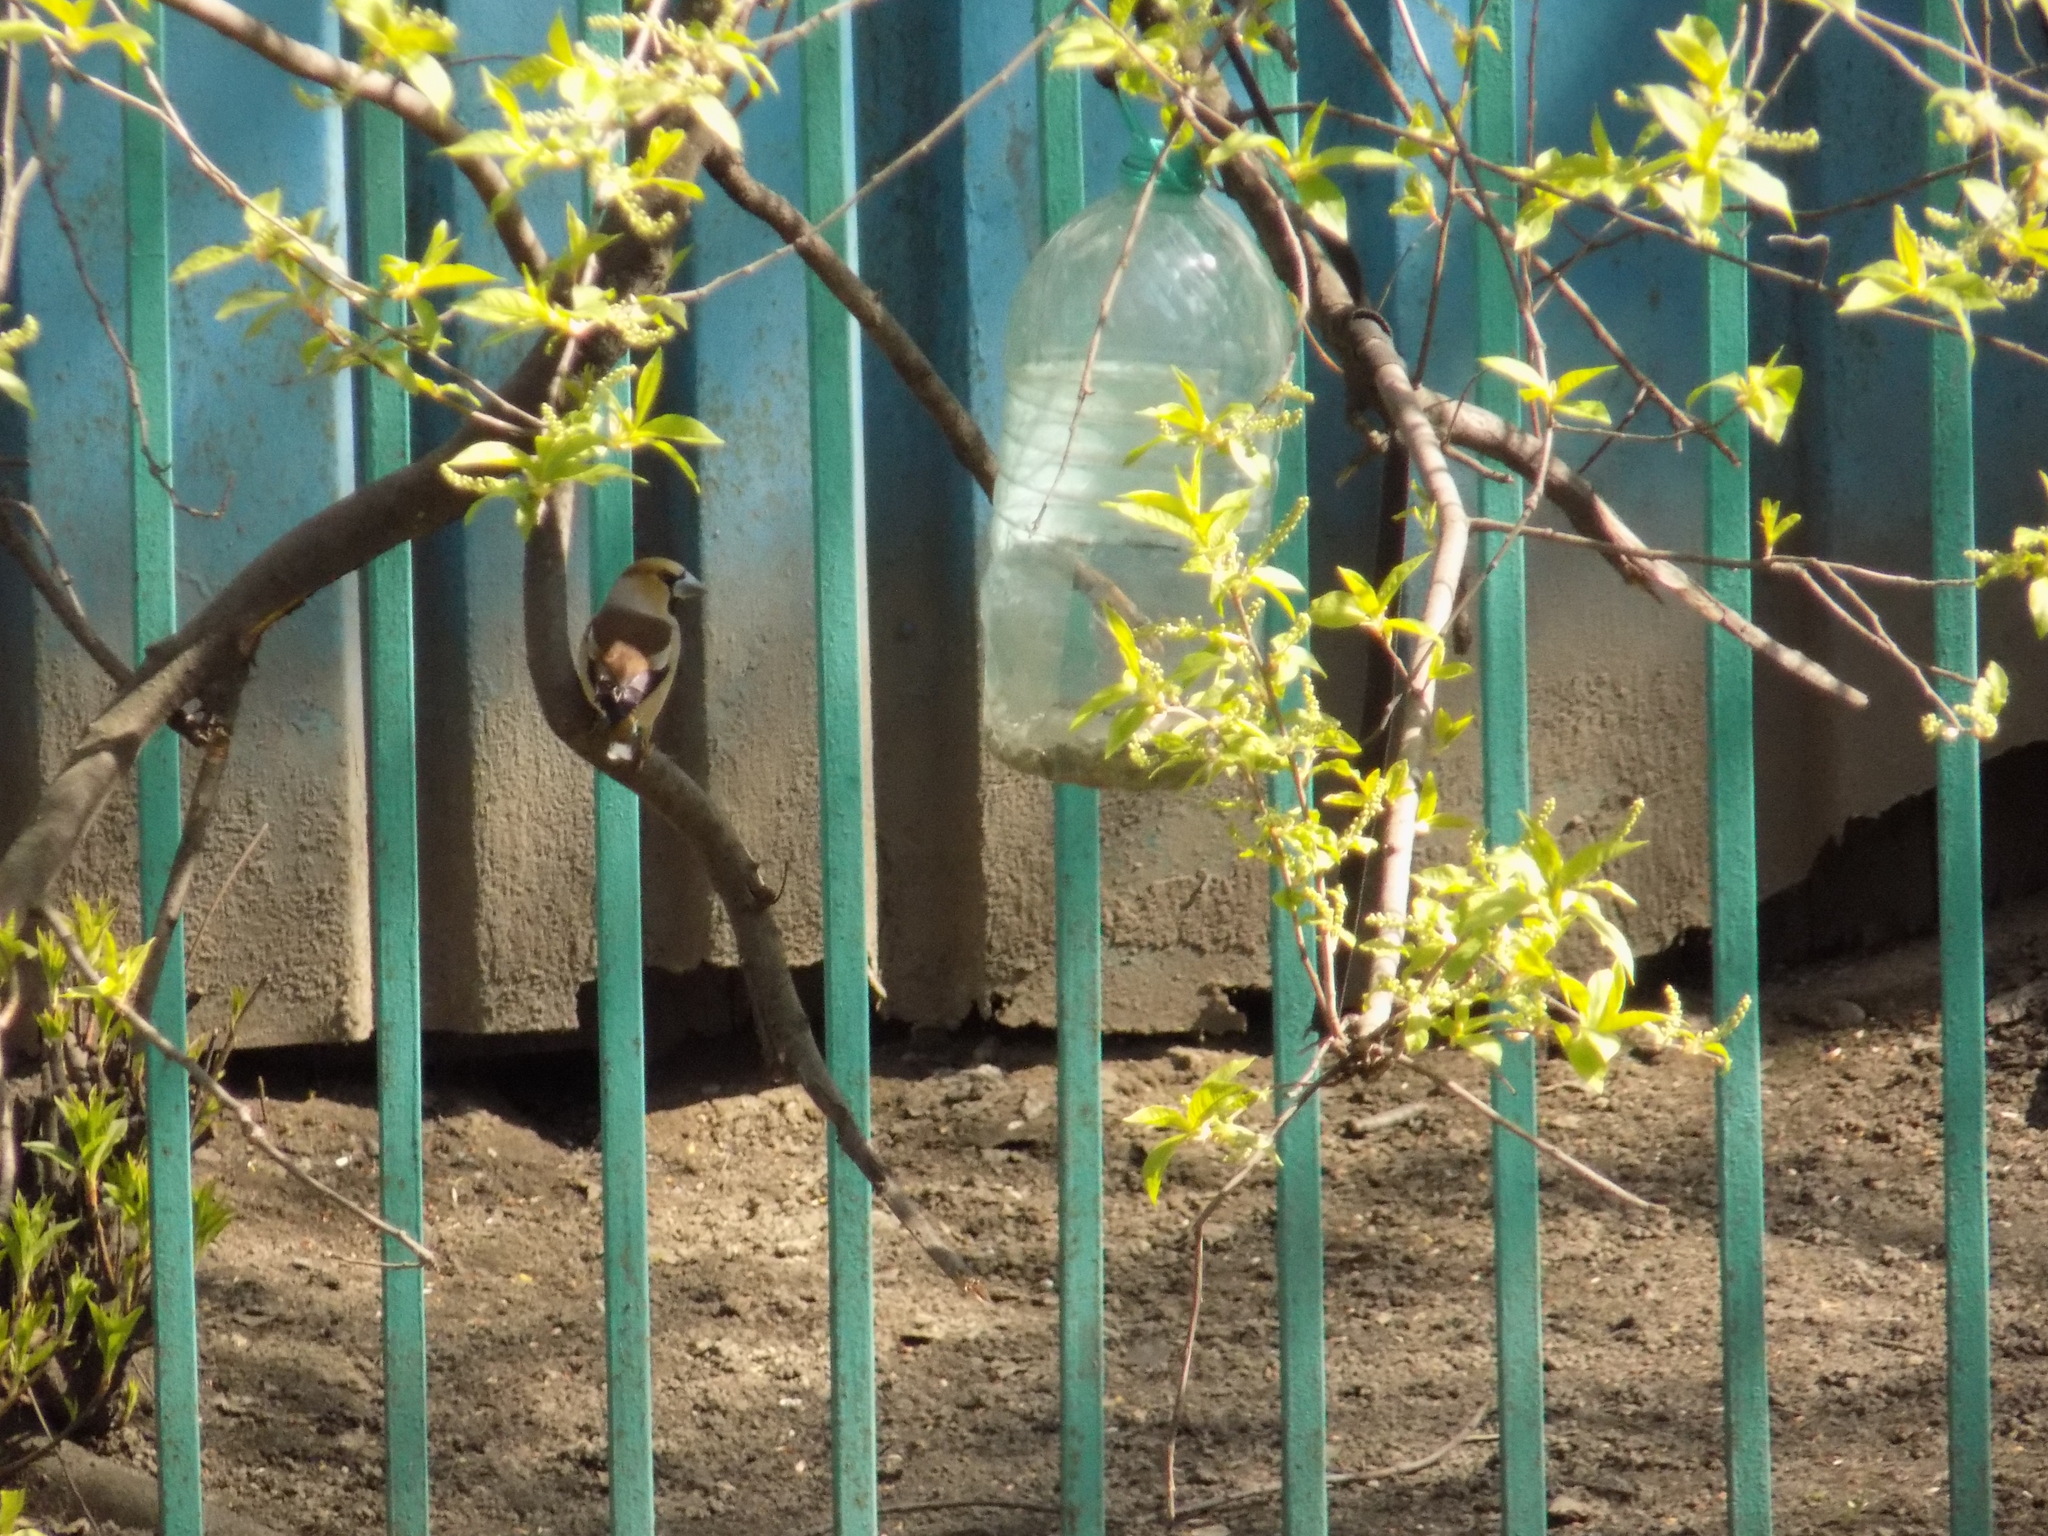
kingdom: Animalia
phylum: Chordata
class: Aves
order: Passeriformes
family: Fringillidae
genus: Coccothraustes
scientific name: Coccothraustes coccothraustes
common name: Hawfinch
